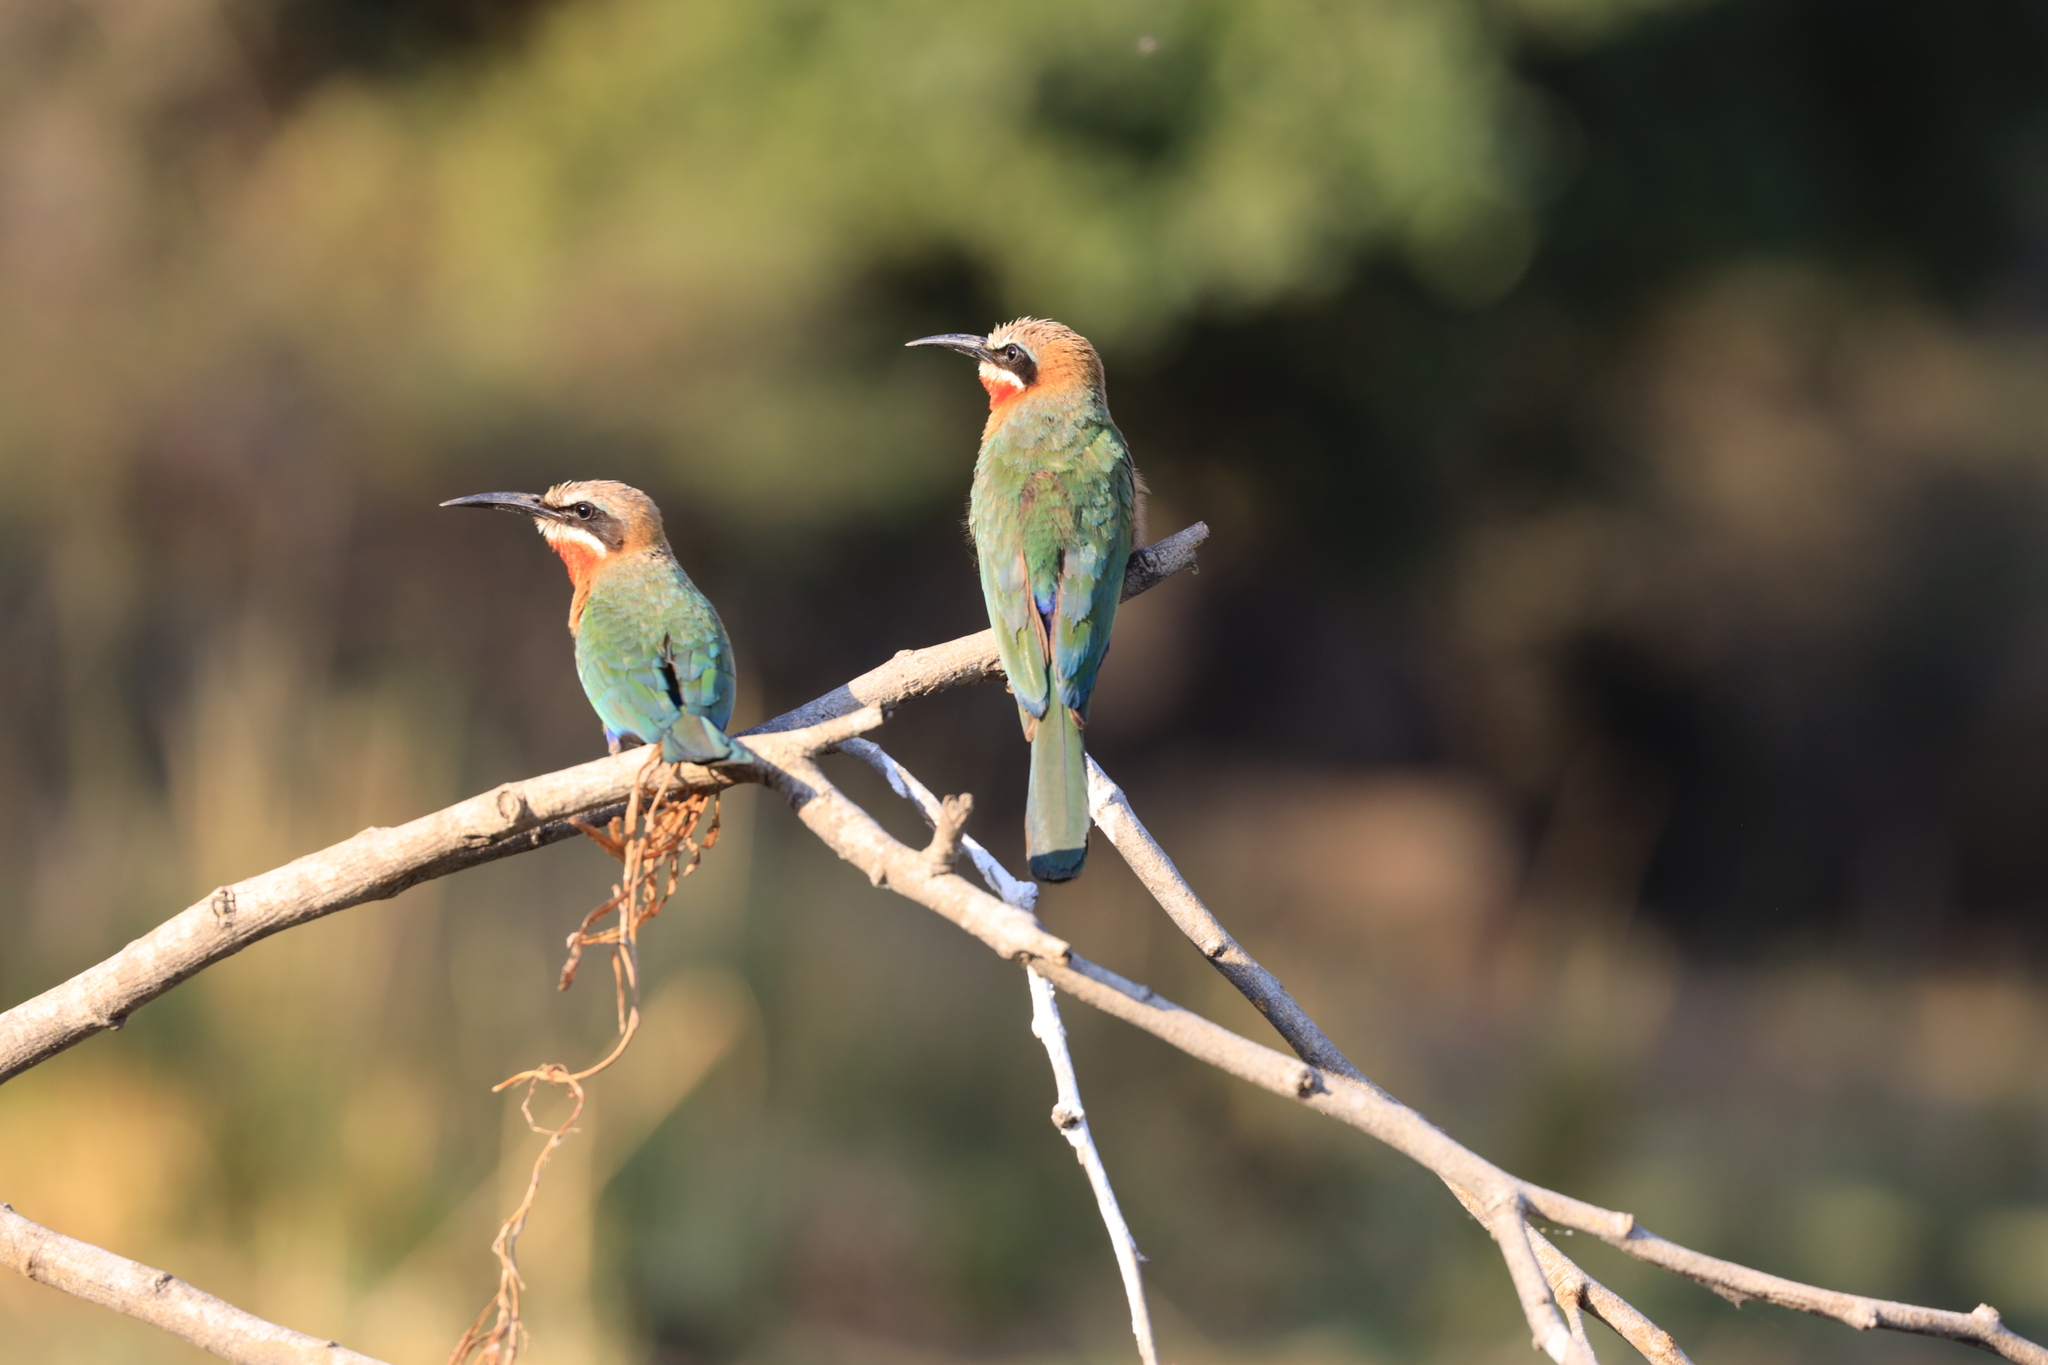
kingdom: Animalia
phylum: Chordata
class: Aves
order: Coraciiformes
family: Meropidae
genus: Merops
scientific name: Merops bullockoides
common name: White-fronted bee-eater
